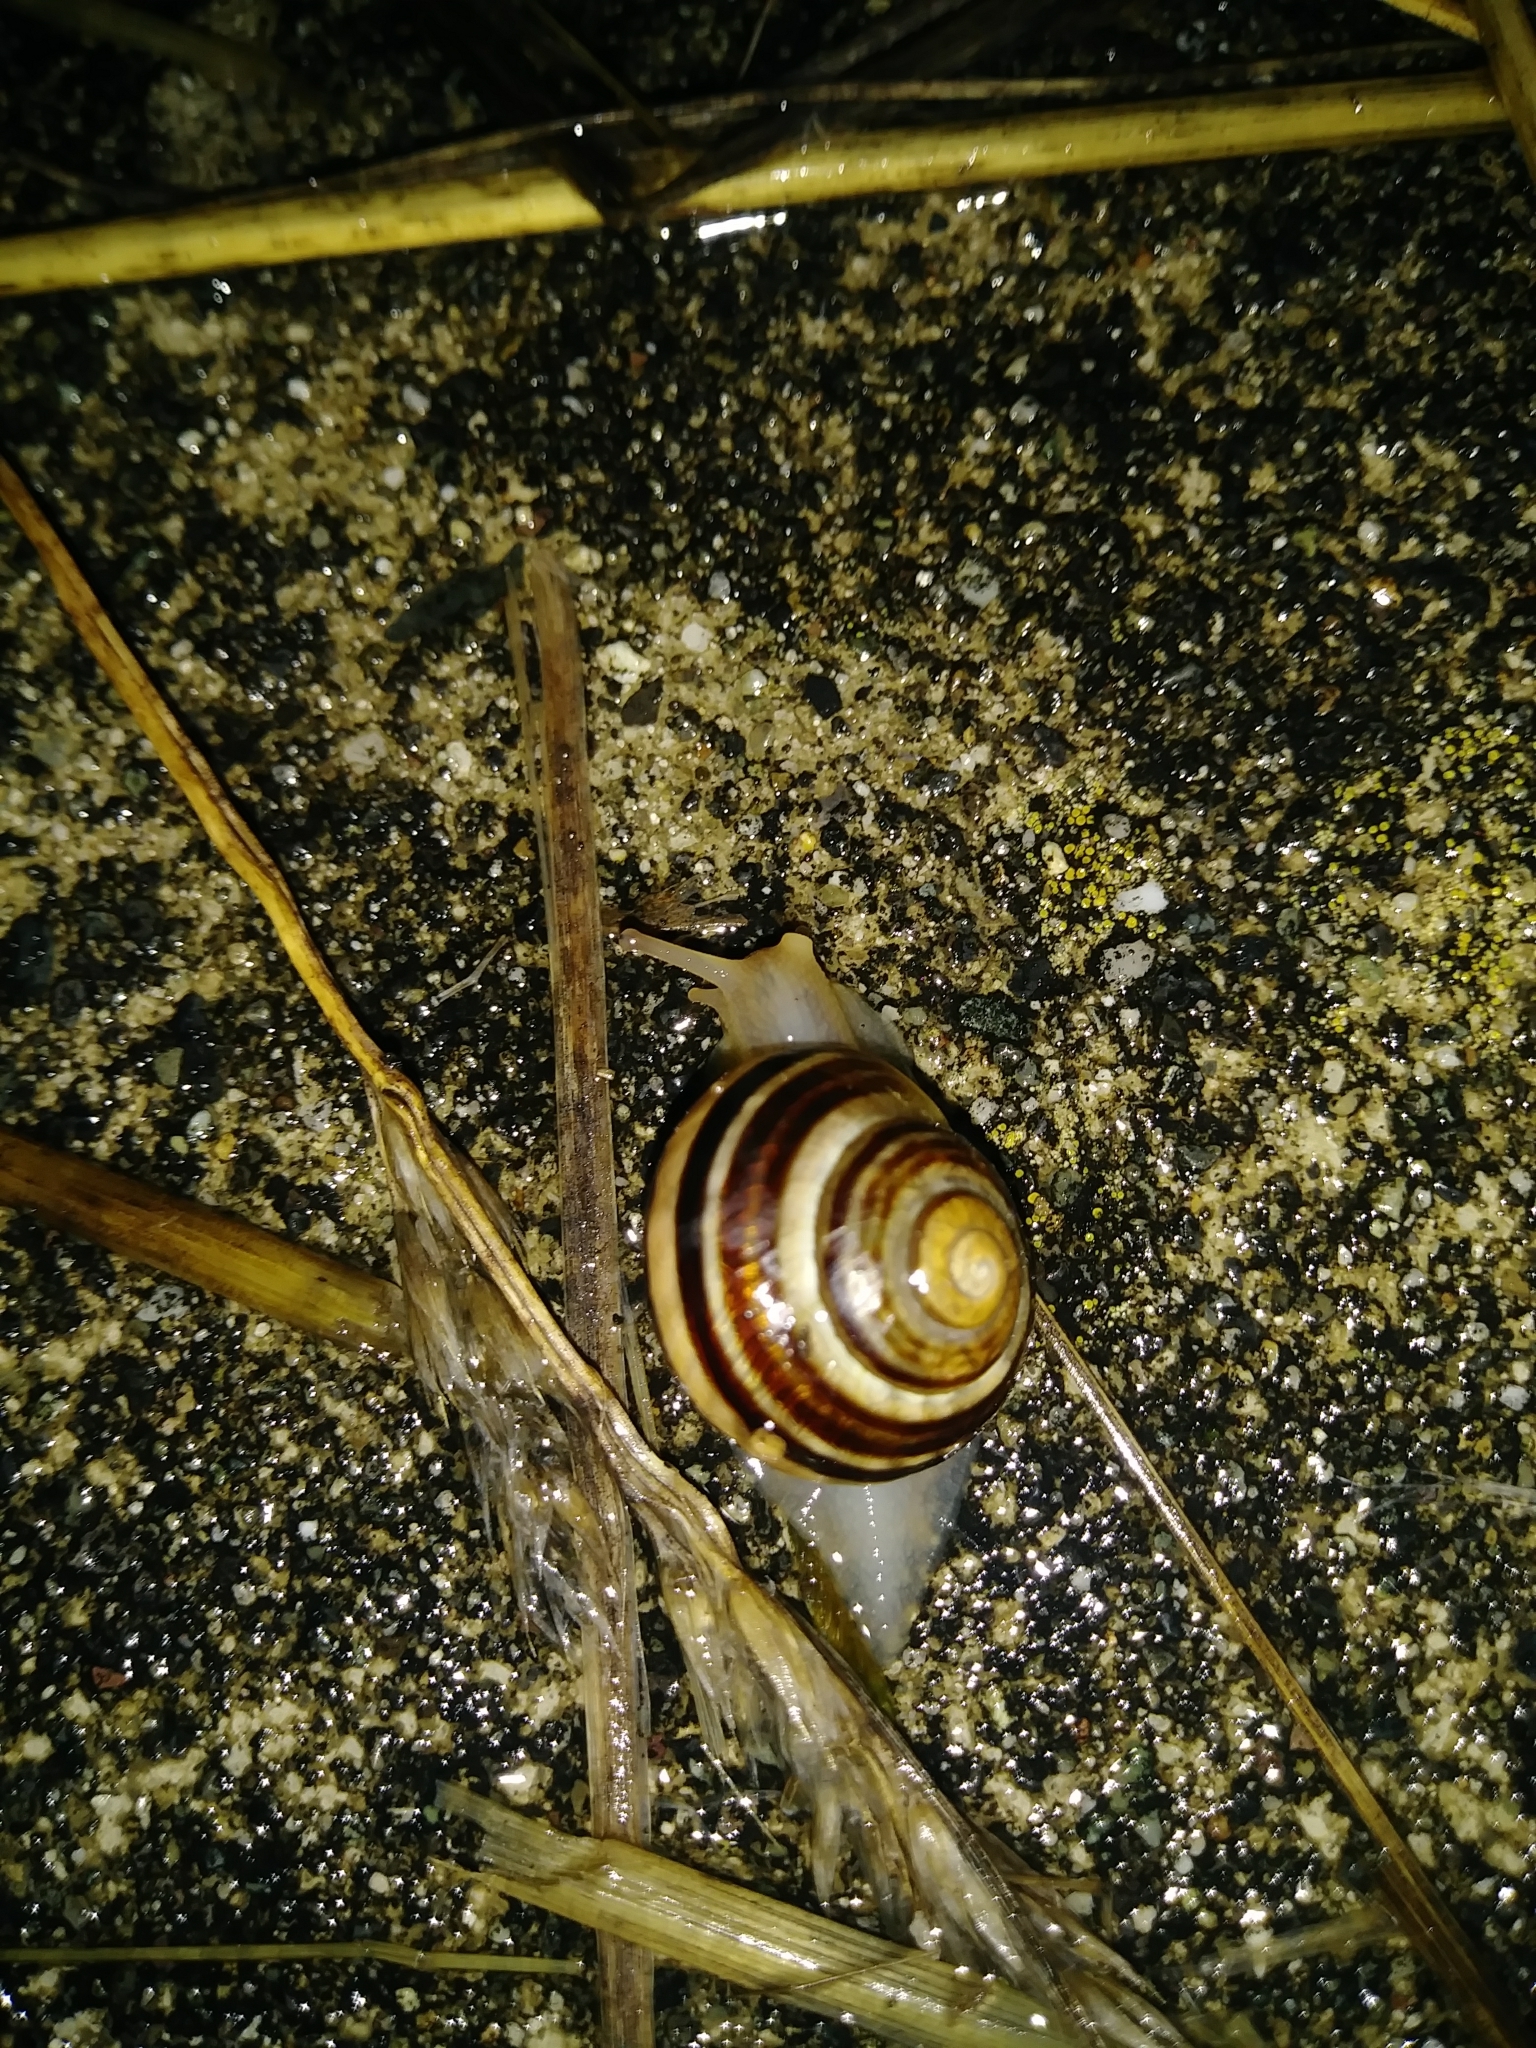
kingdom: Animalia
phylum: Mollusca
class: Gastropoda
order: Stylommatophora
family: Helicidae
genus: Cepaea
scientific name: Cepaea nemoralis
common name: Grovesnail
